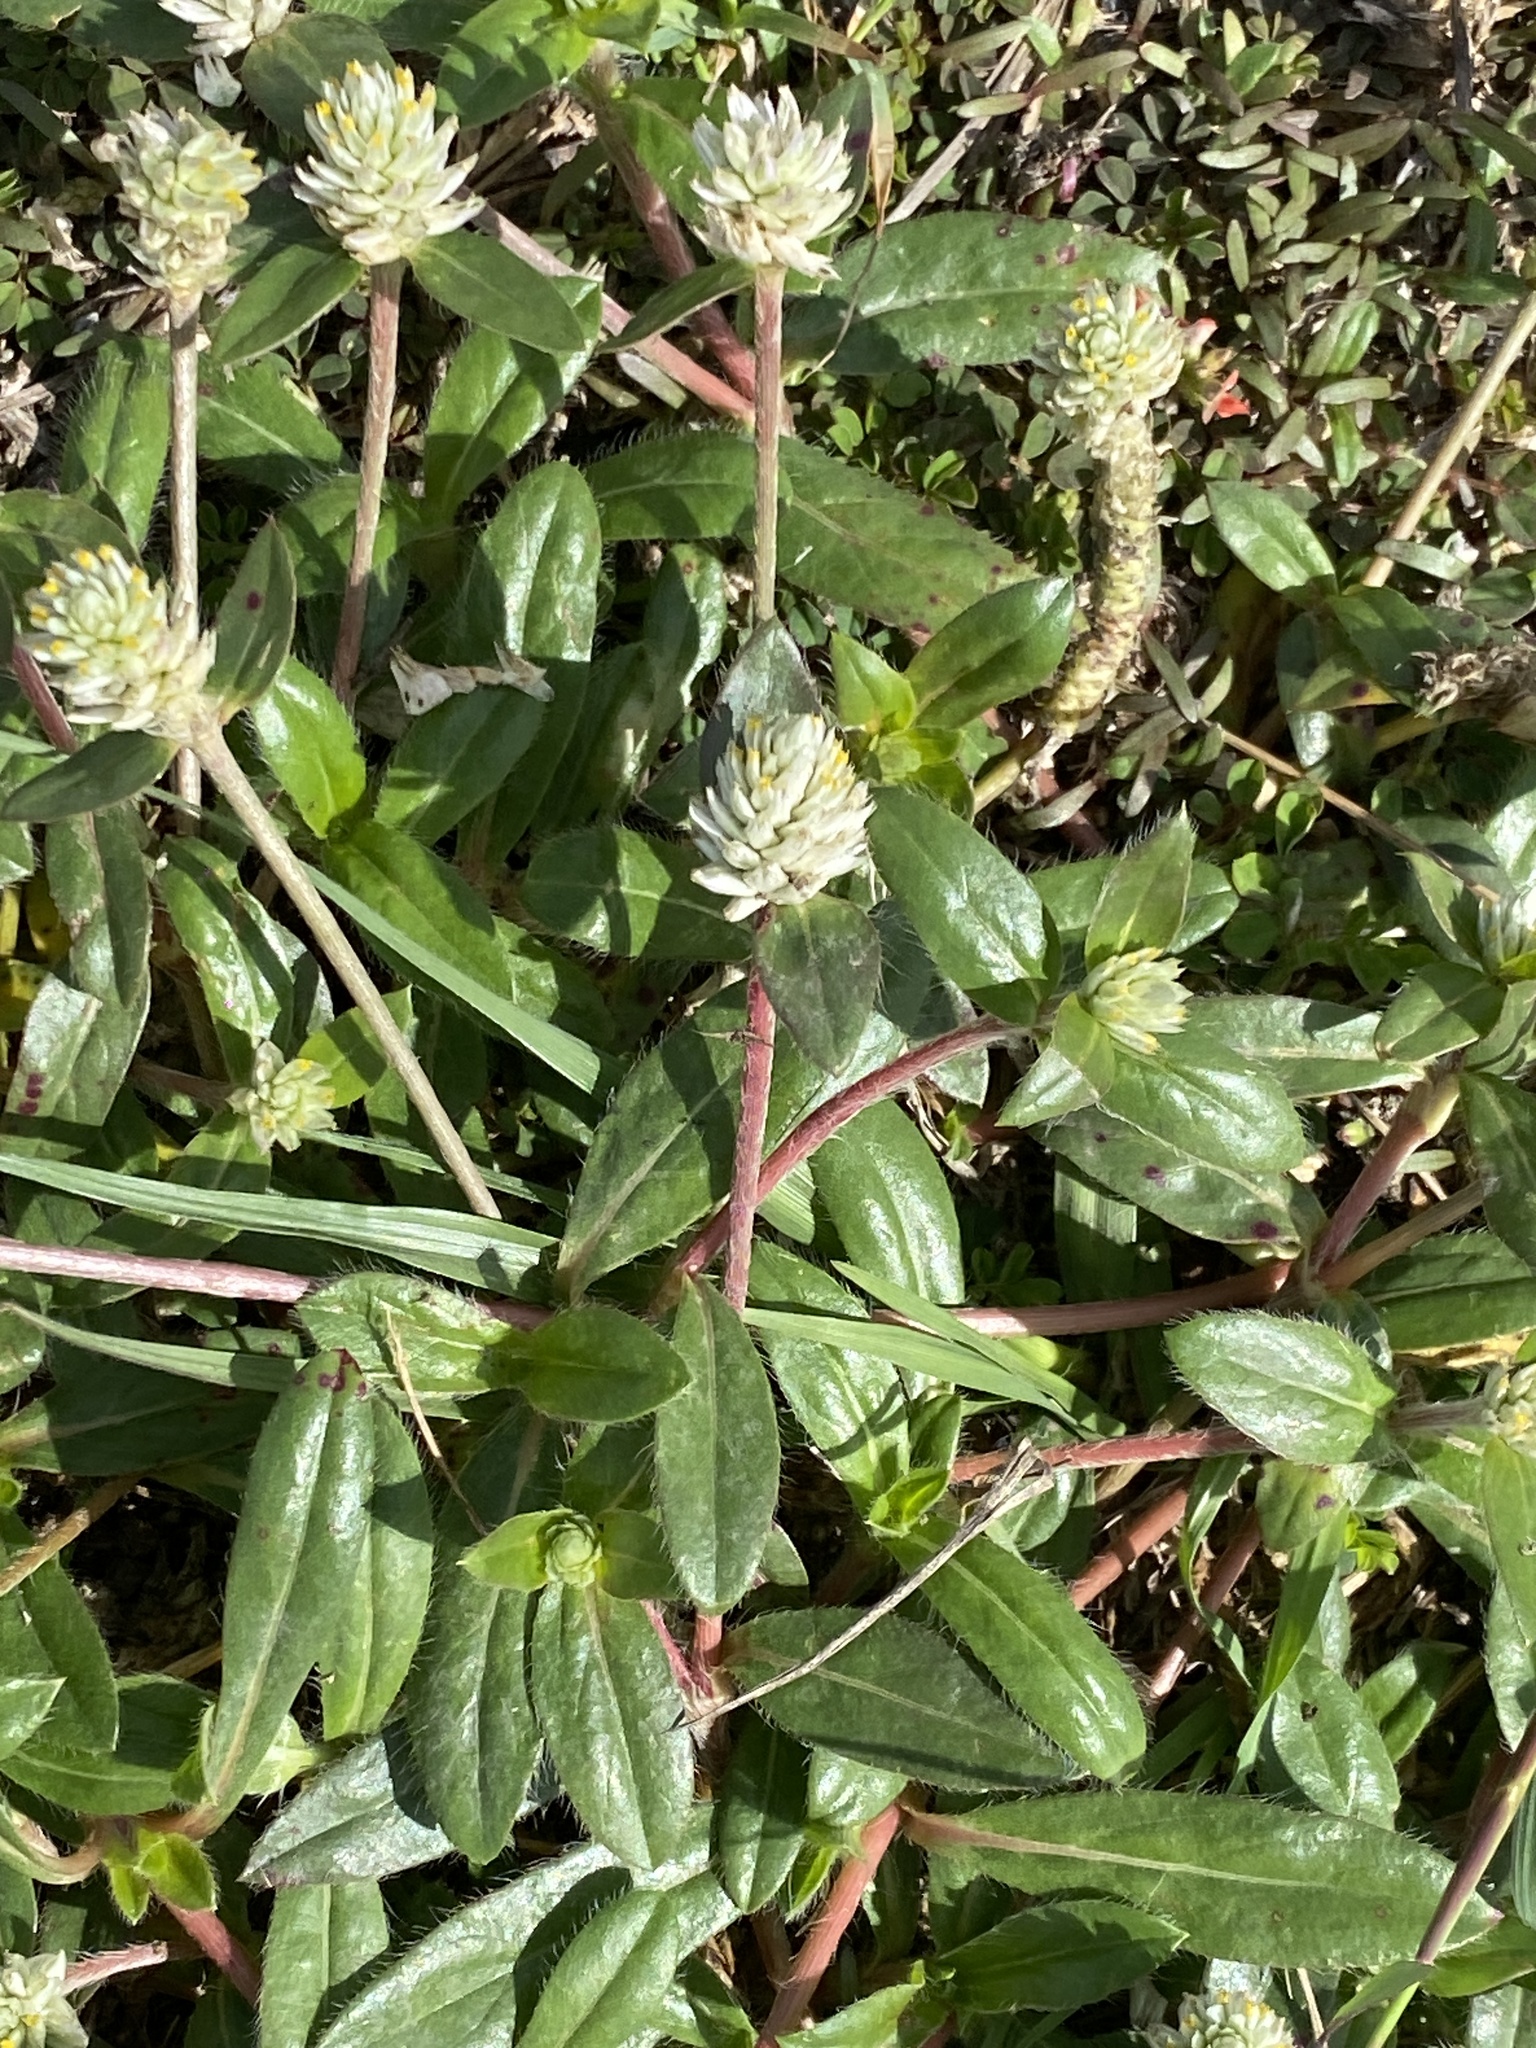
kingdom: Plantae
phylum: Tracheophyta
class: Magnoliopsida
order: Caryophyllales
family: Amaranthaceae
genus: Gomphrena
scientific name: Gomphrena celosioides
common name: Gomphrena-weed
